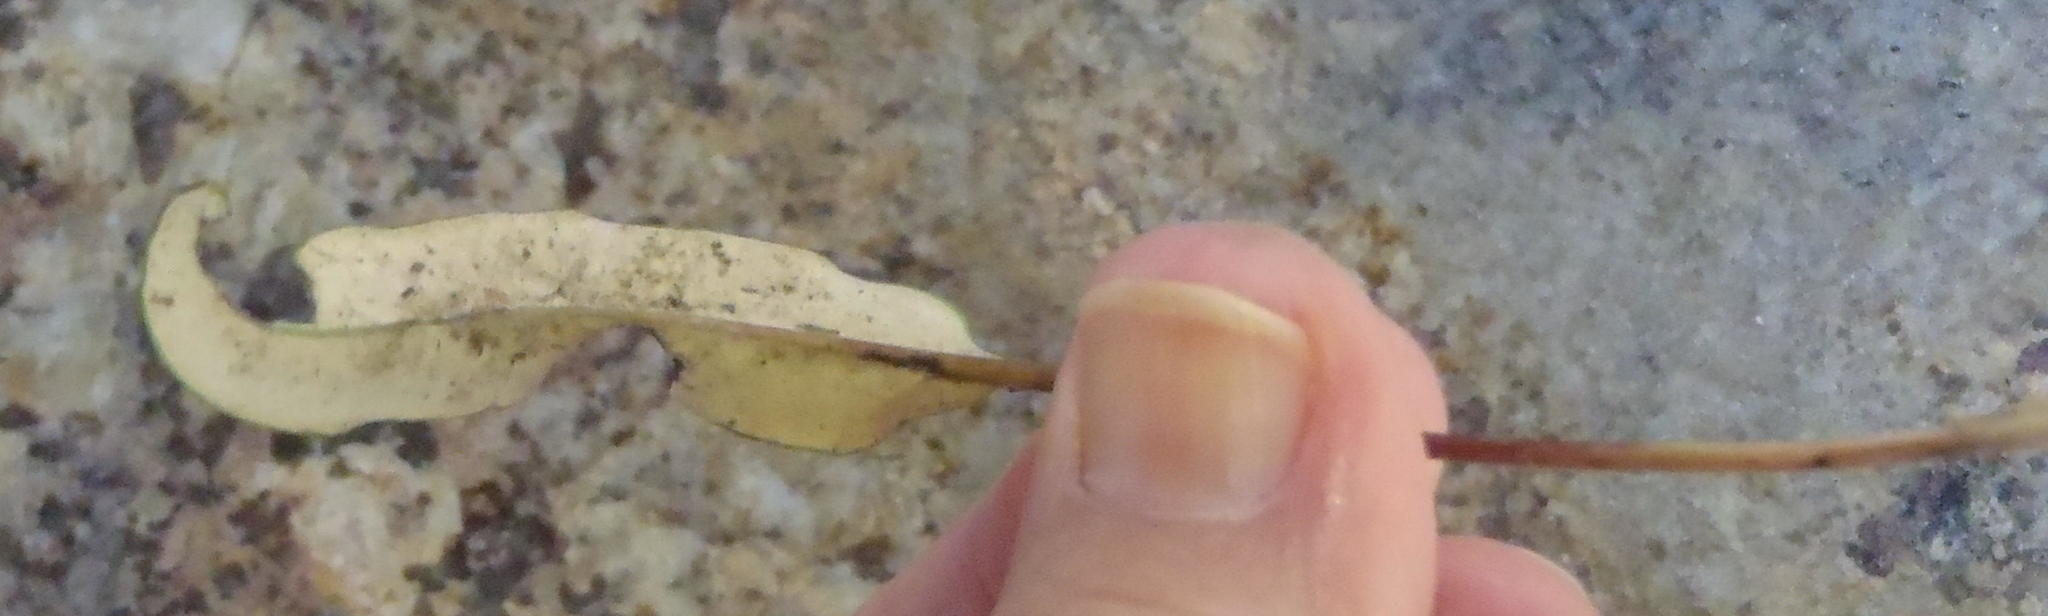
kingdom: Plantae
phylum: Tracheophyta
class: Magnoliopsida
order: Asterales
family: Asteraceae
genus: Gerbera
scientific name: Gerbera serrata
